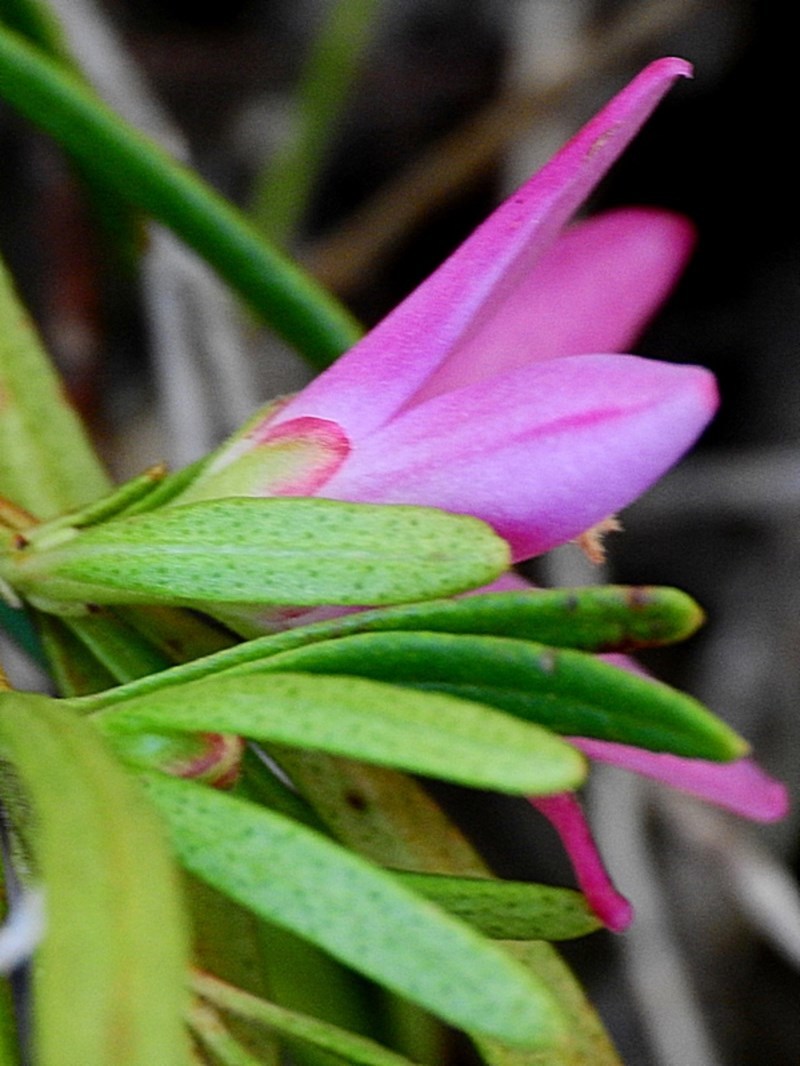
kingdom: Plantae
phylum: Tracheophyta
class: Magnoliopsida
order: Sapindales
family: Rutaceae
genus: Crowea
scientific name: Crowea exalata
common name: Small crowea
